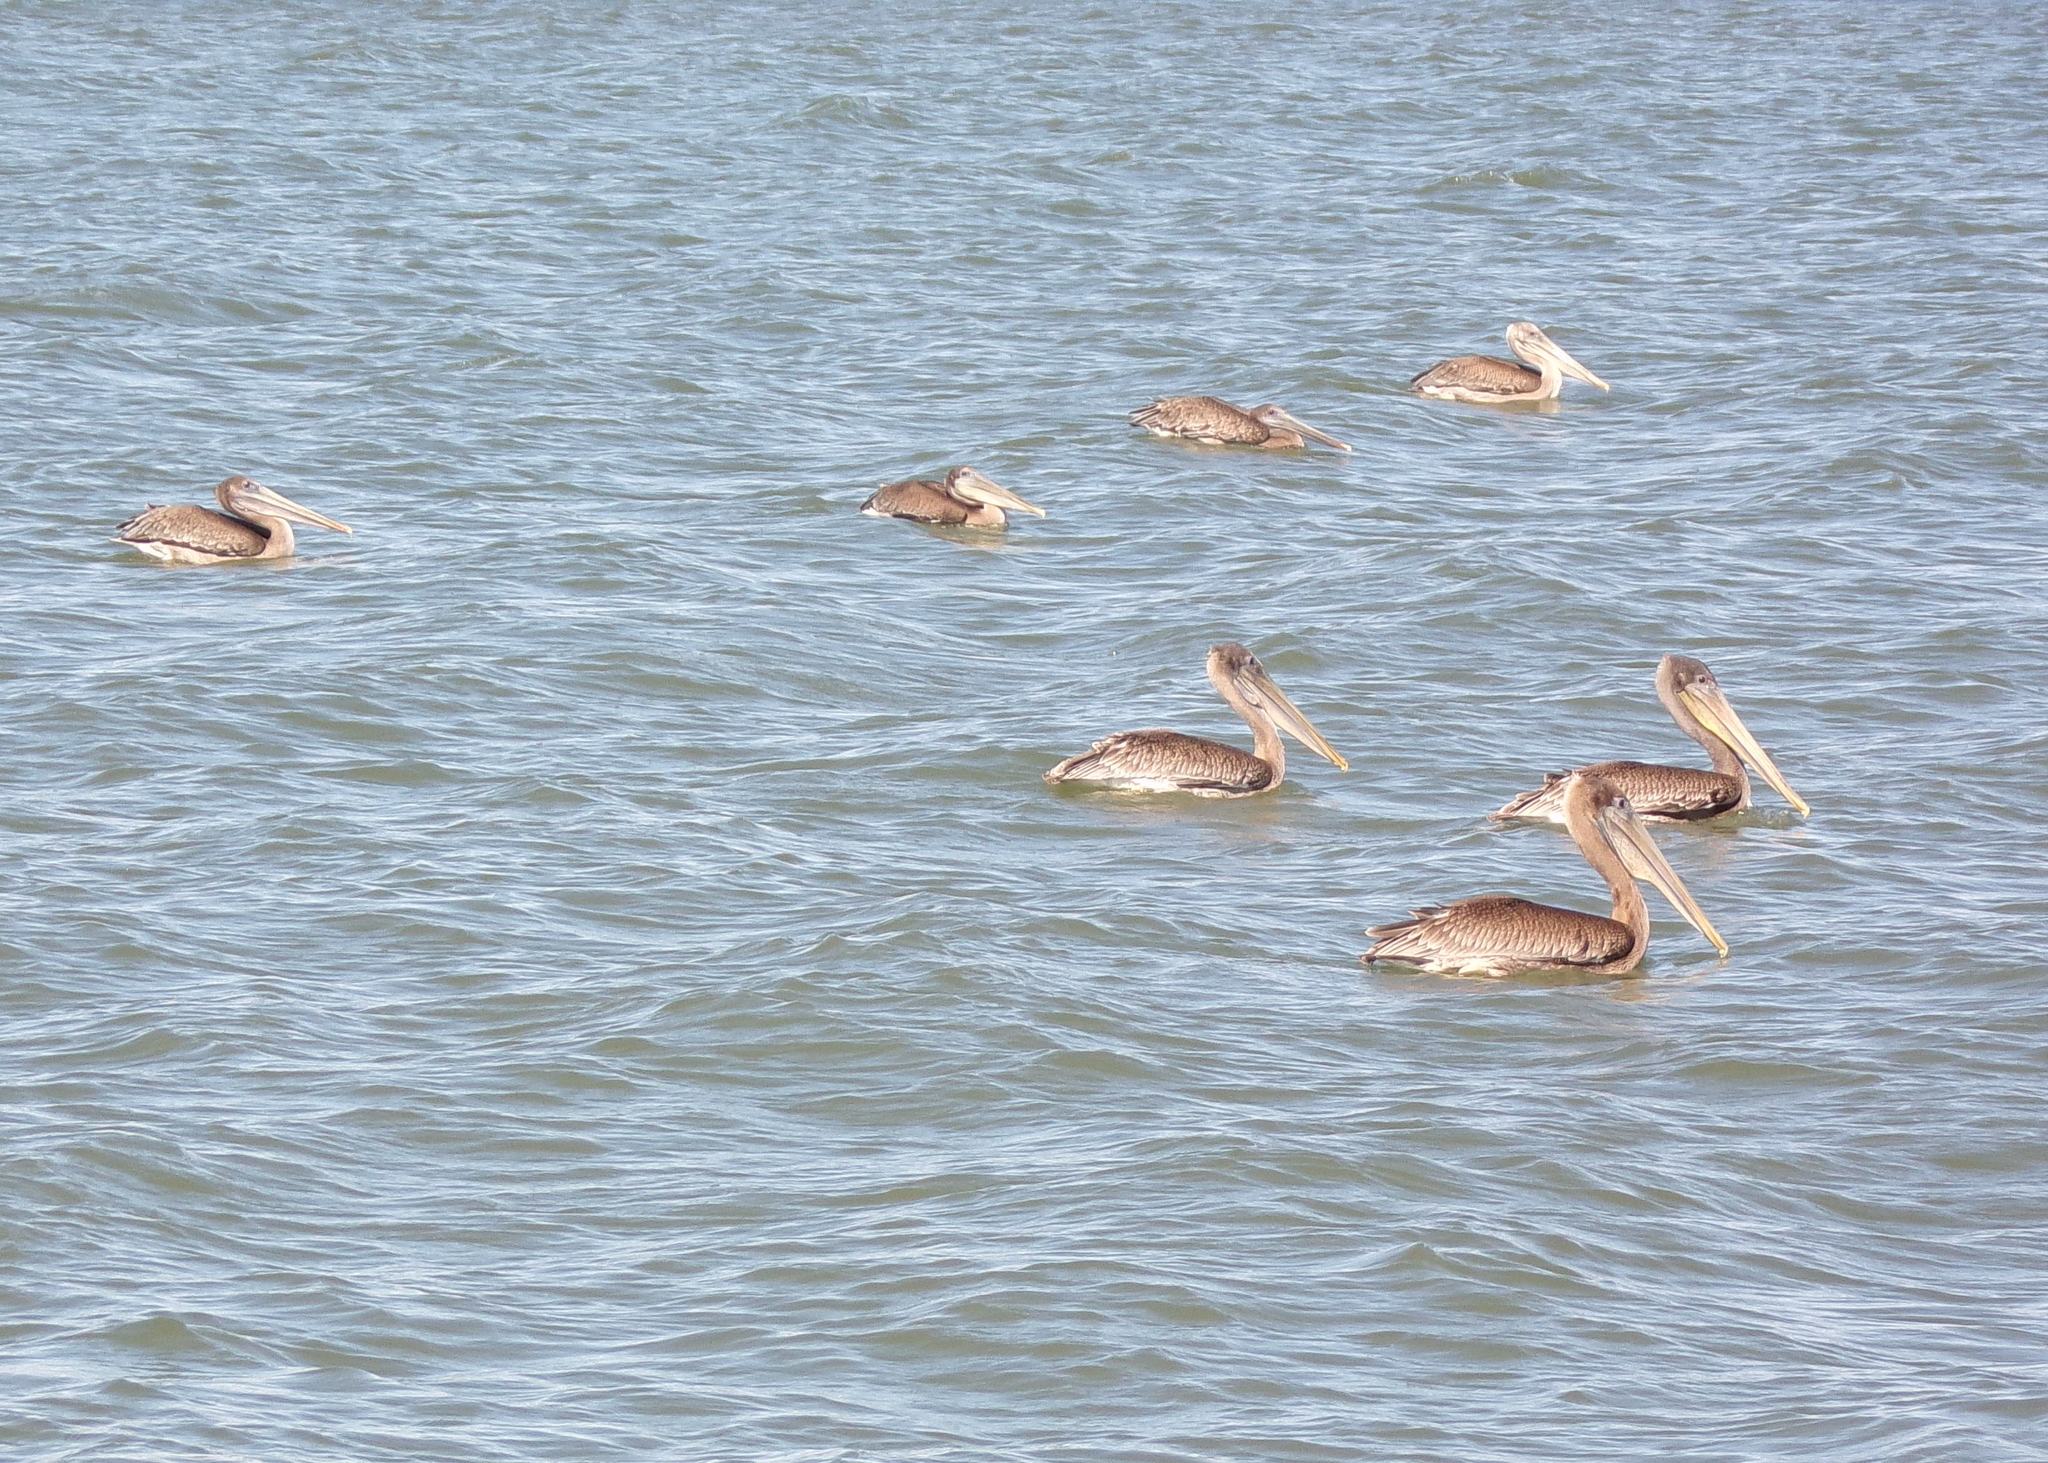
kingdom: Animalia
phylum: Chordata
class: Aves
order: Pelecaniformes
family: Pelecanidae
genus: Pelecanus
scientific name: Pelecanus occidentalis
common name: Brown pelican
